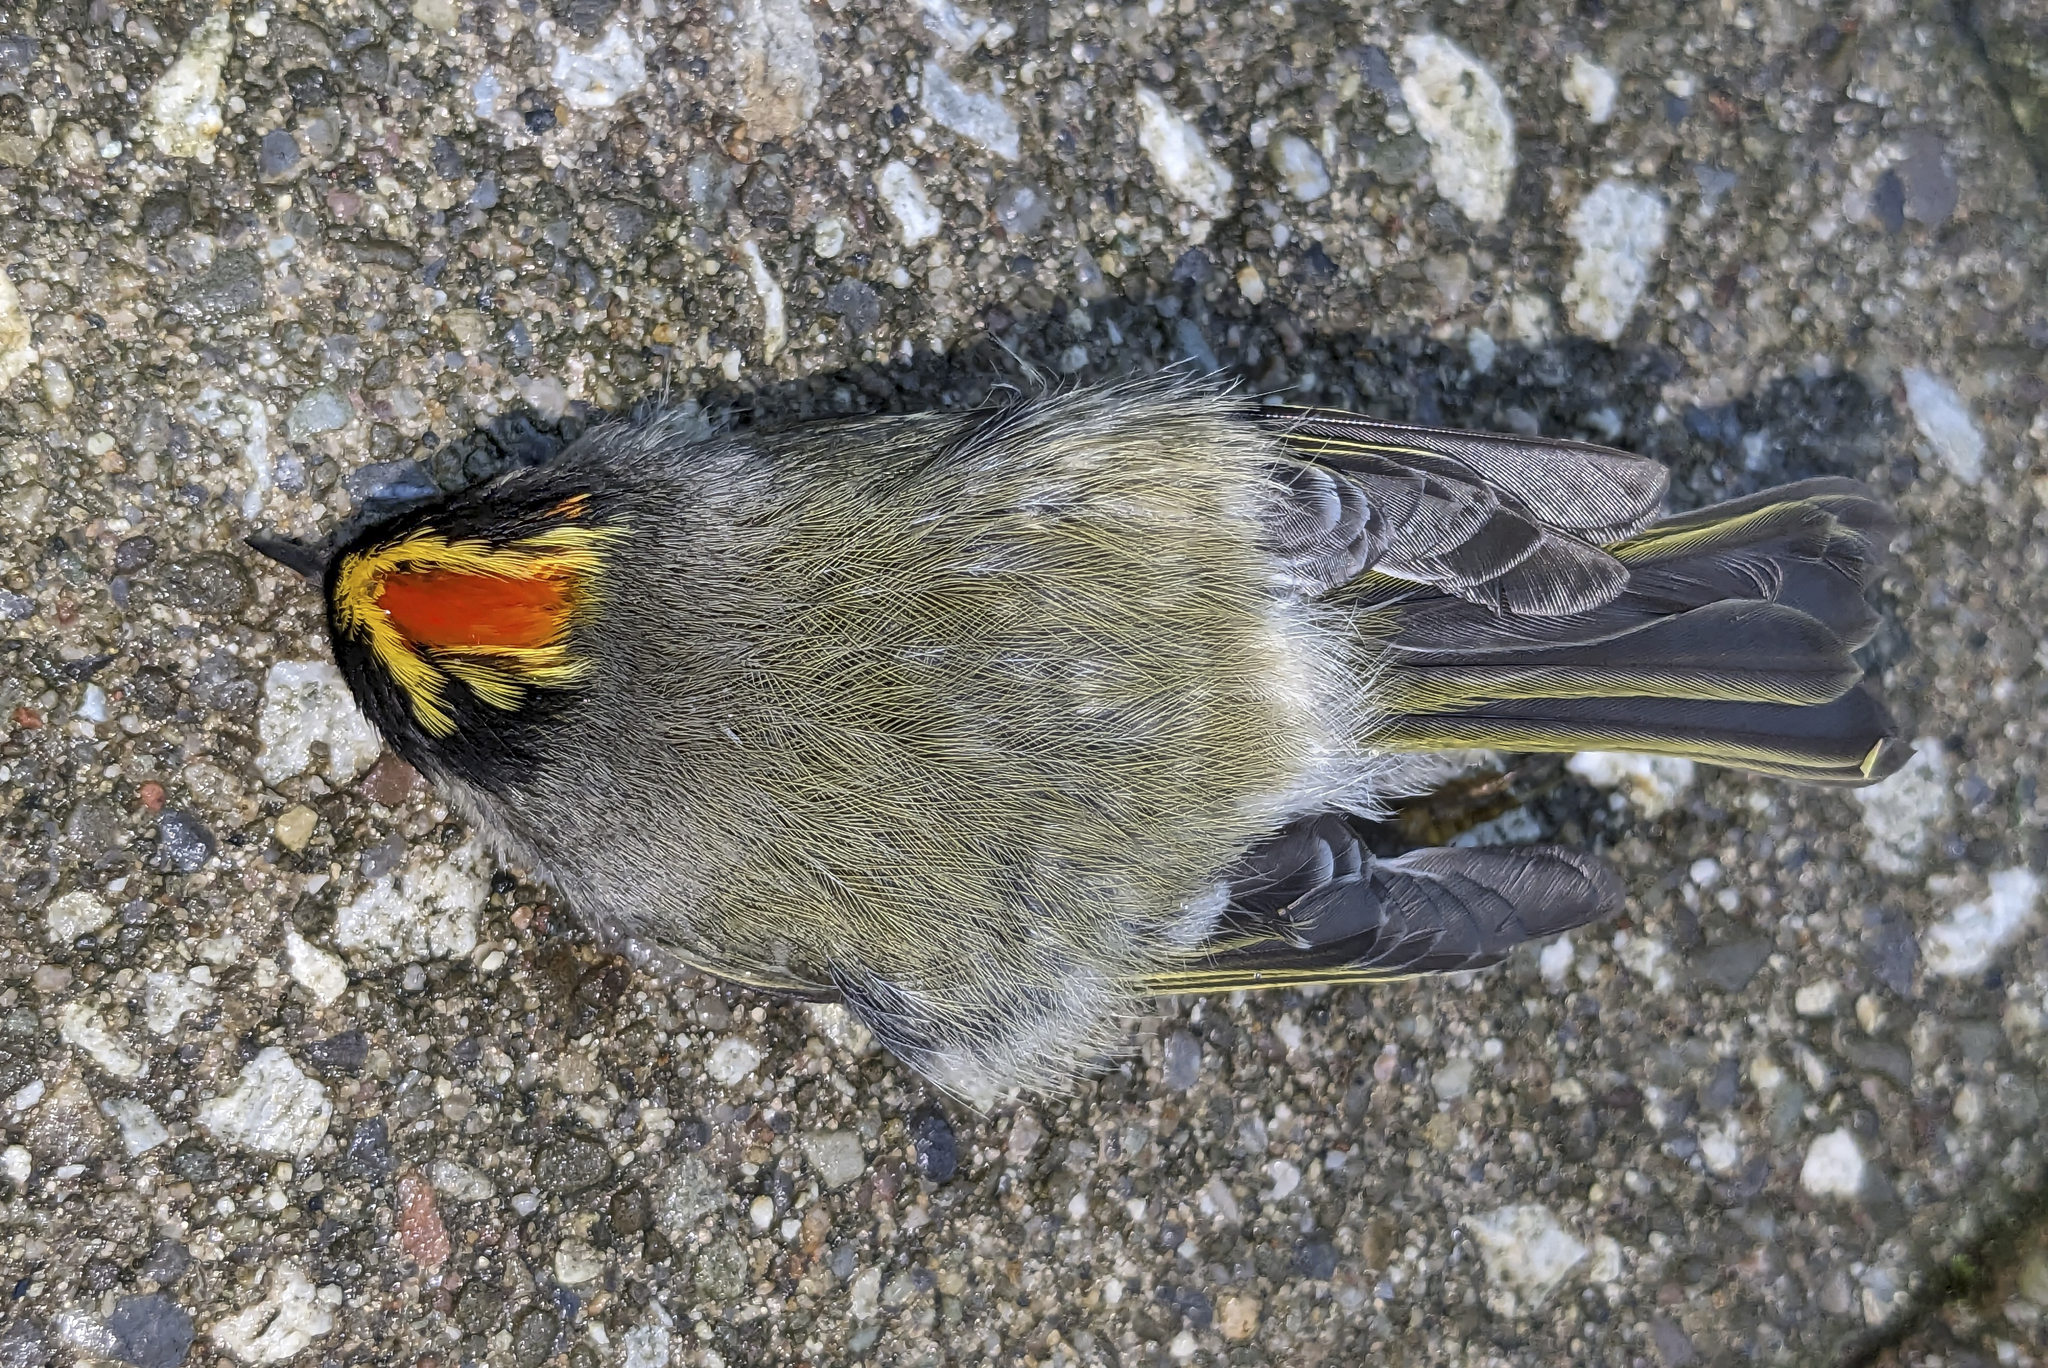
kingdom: Animalia
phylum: Chordata
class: Aves
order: Passeriformes
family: Regulidae
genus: Regulus
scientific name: Regulus satrapa
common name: Golden-crowned kinglet
